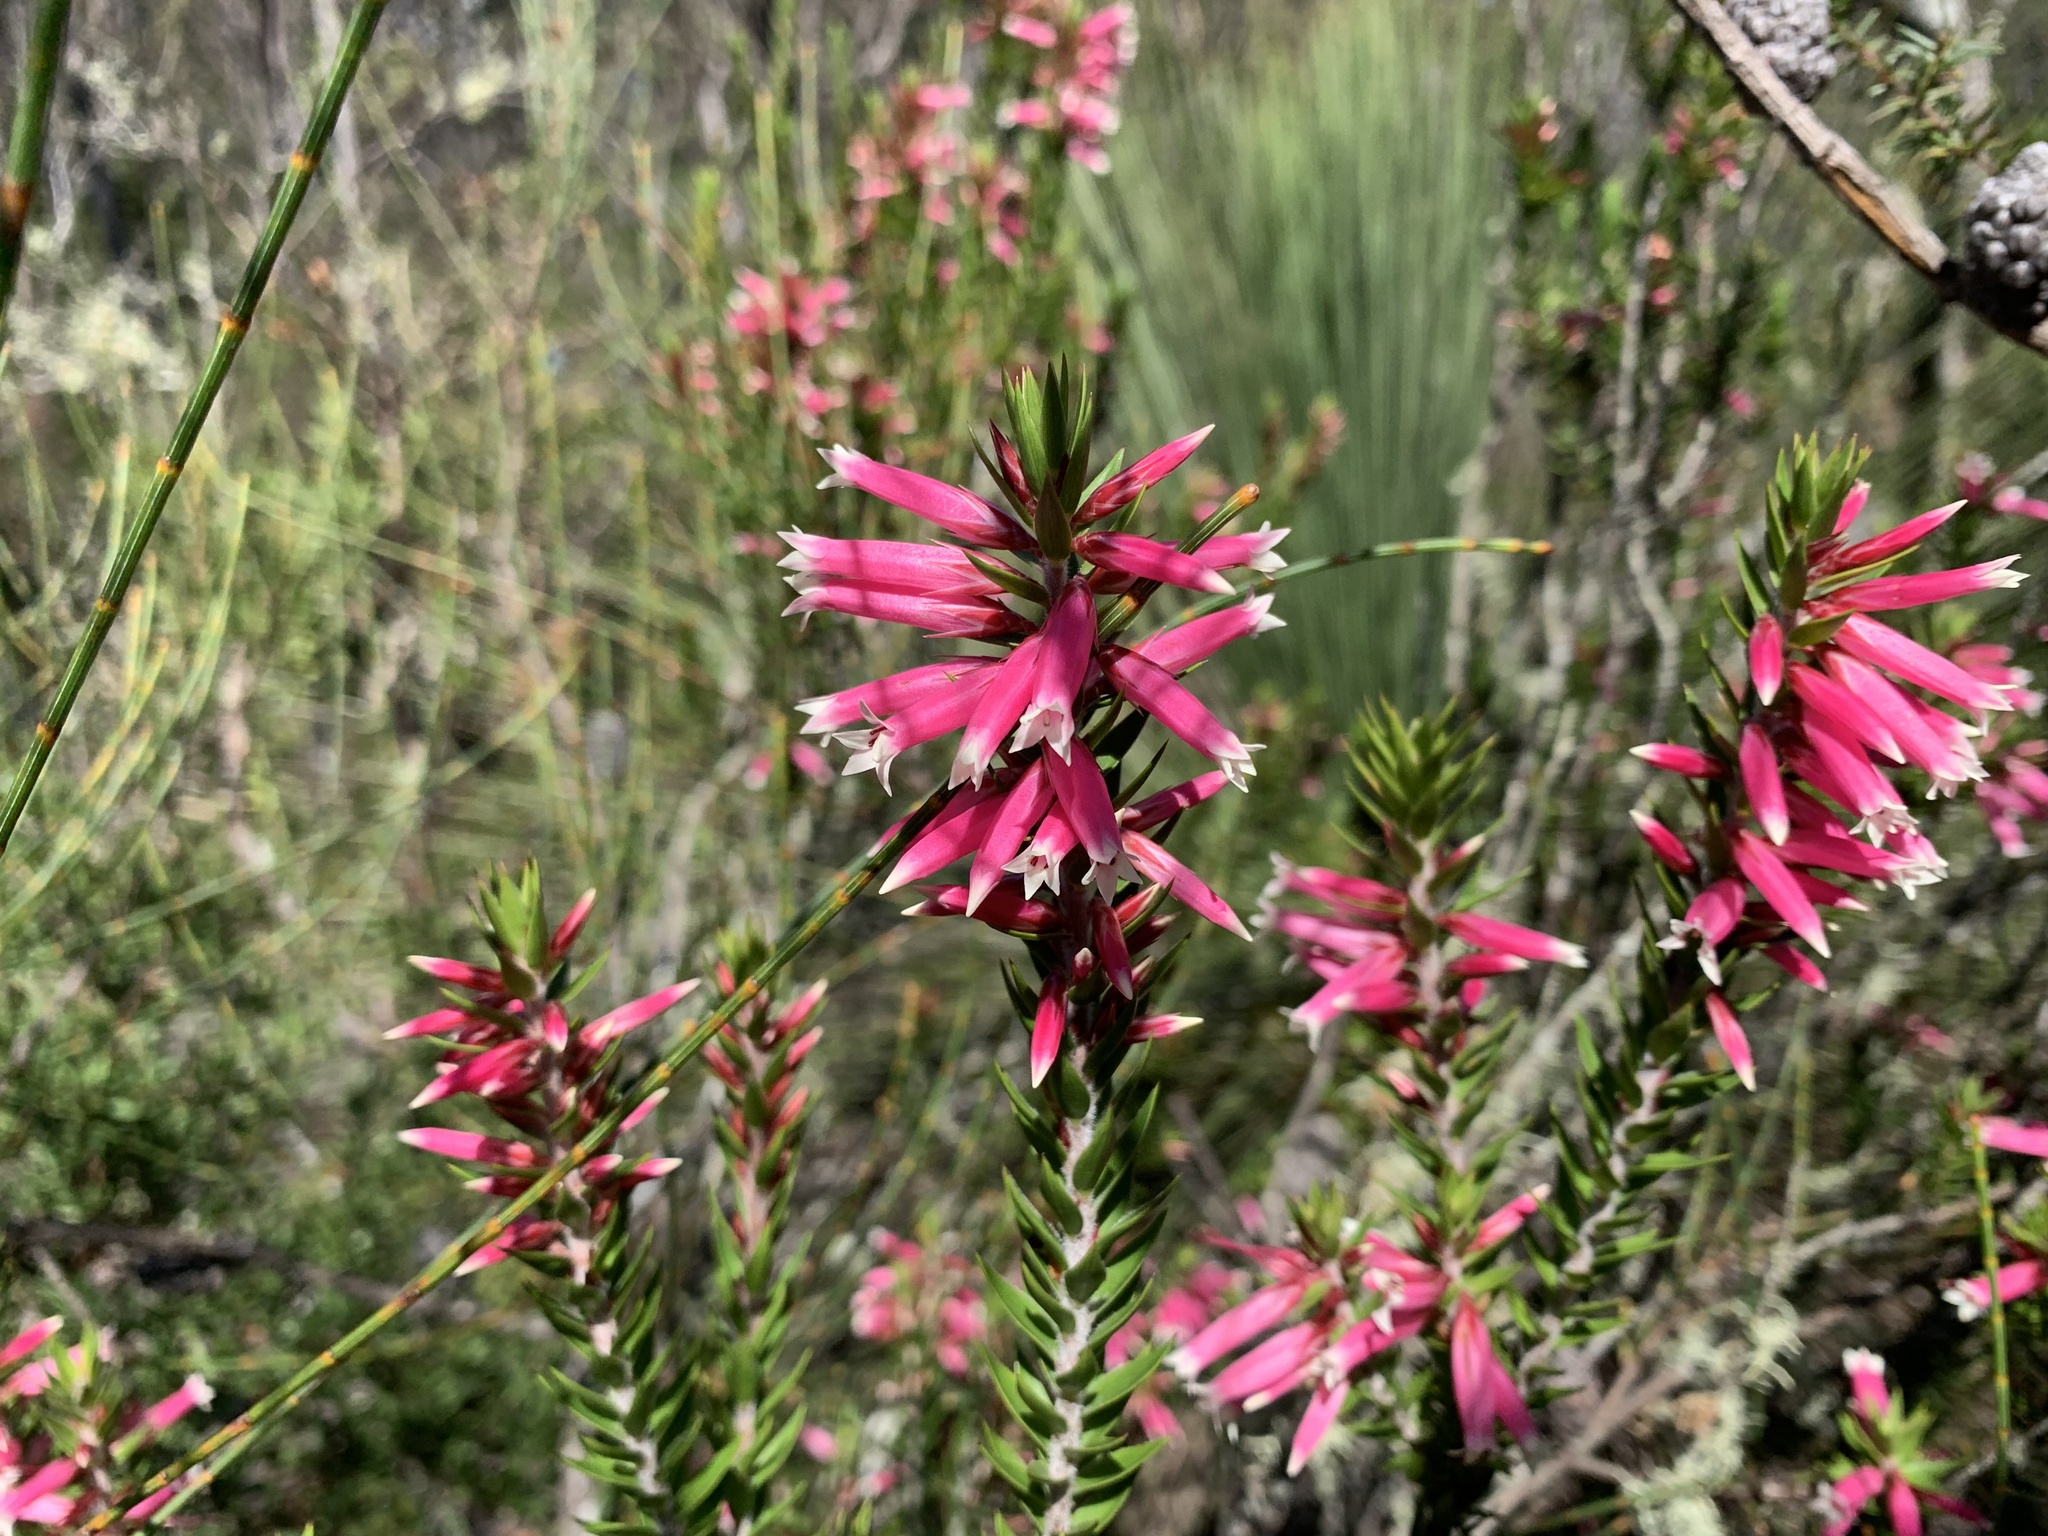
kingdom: Plantae
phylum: Tracheophyta
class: Magnoliopsida
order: Ericales
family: Ericaceae
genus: Epacris
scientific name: Epacris calvertiana
